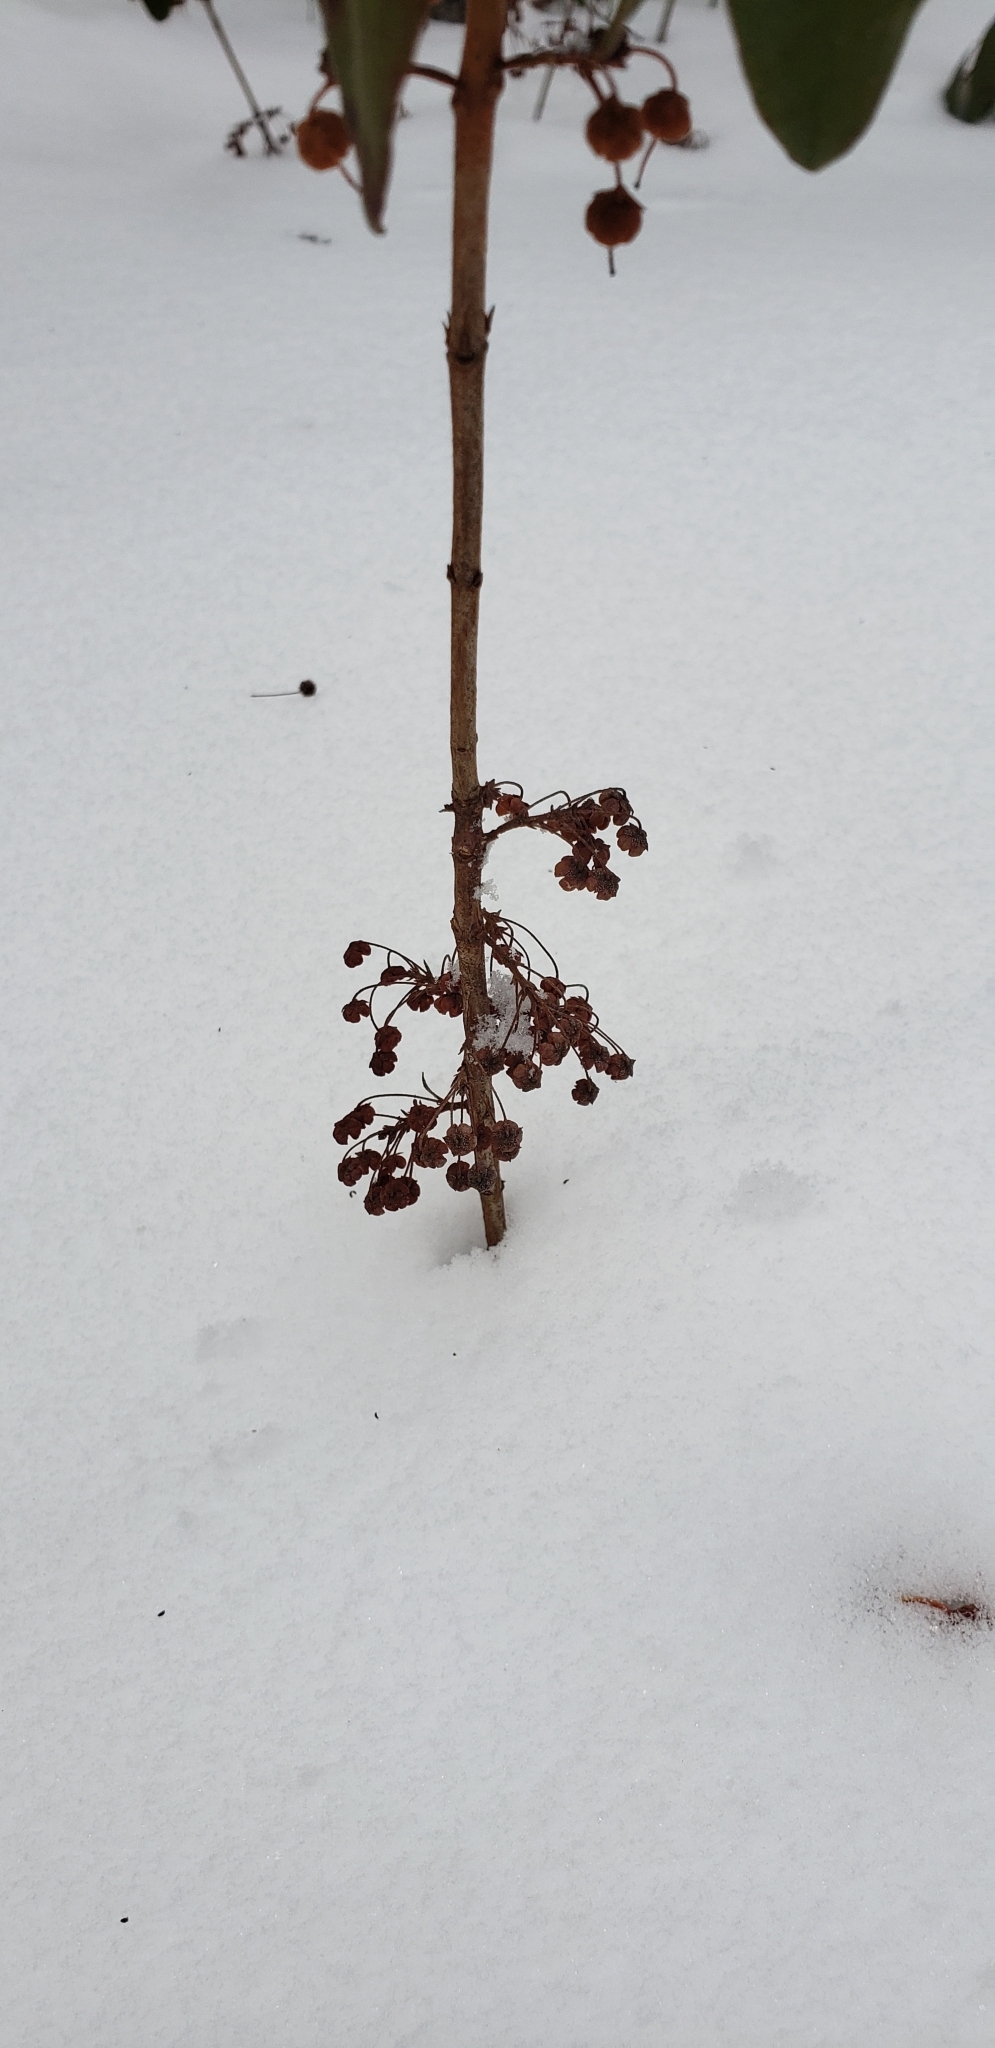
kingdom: Plantae
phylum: Tracheophyta
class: Magnoliopsida
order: Ericales
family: Ericaceae
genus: Kalmia
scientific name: Kalmia angustifolia
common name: Sheep-laurel
